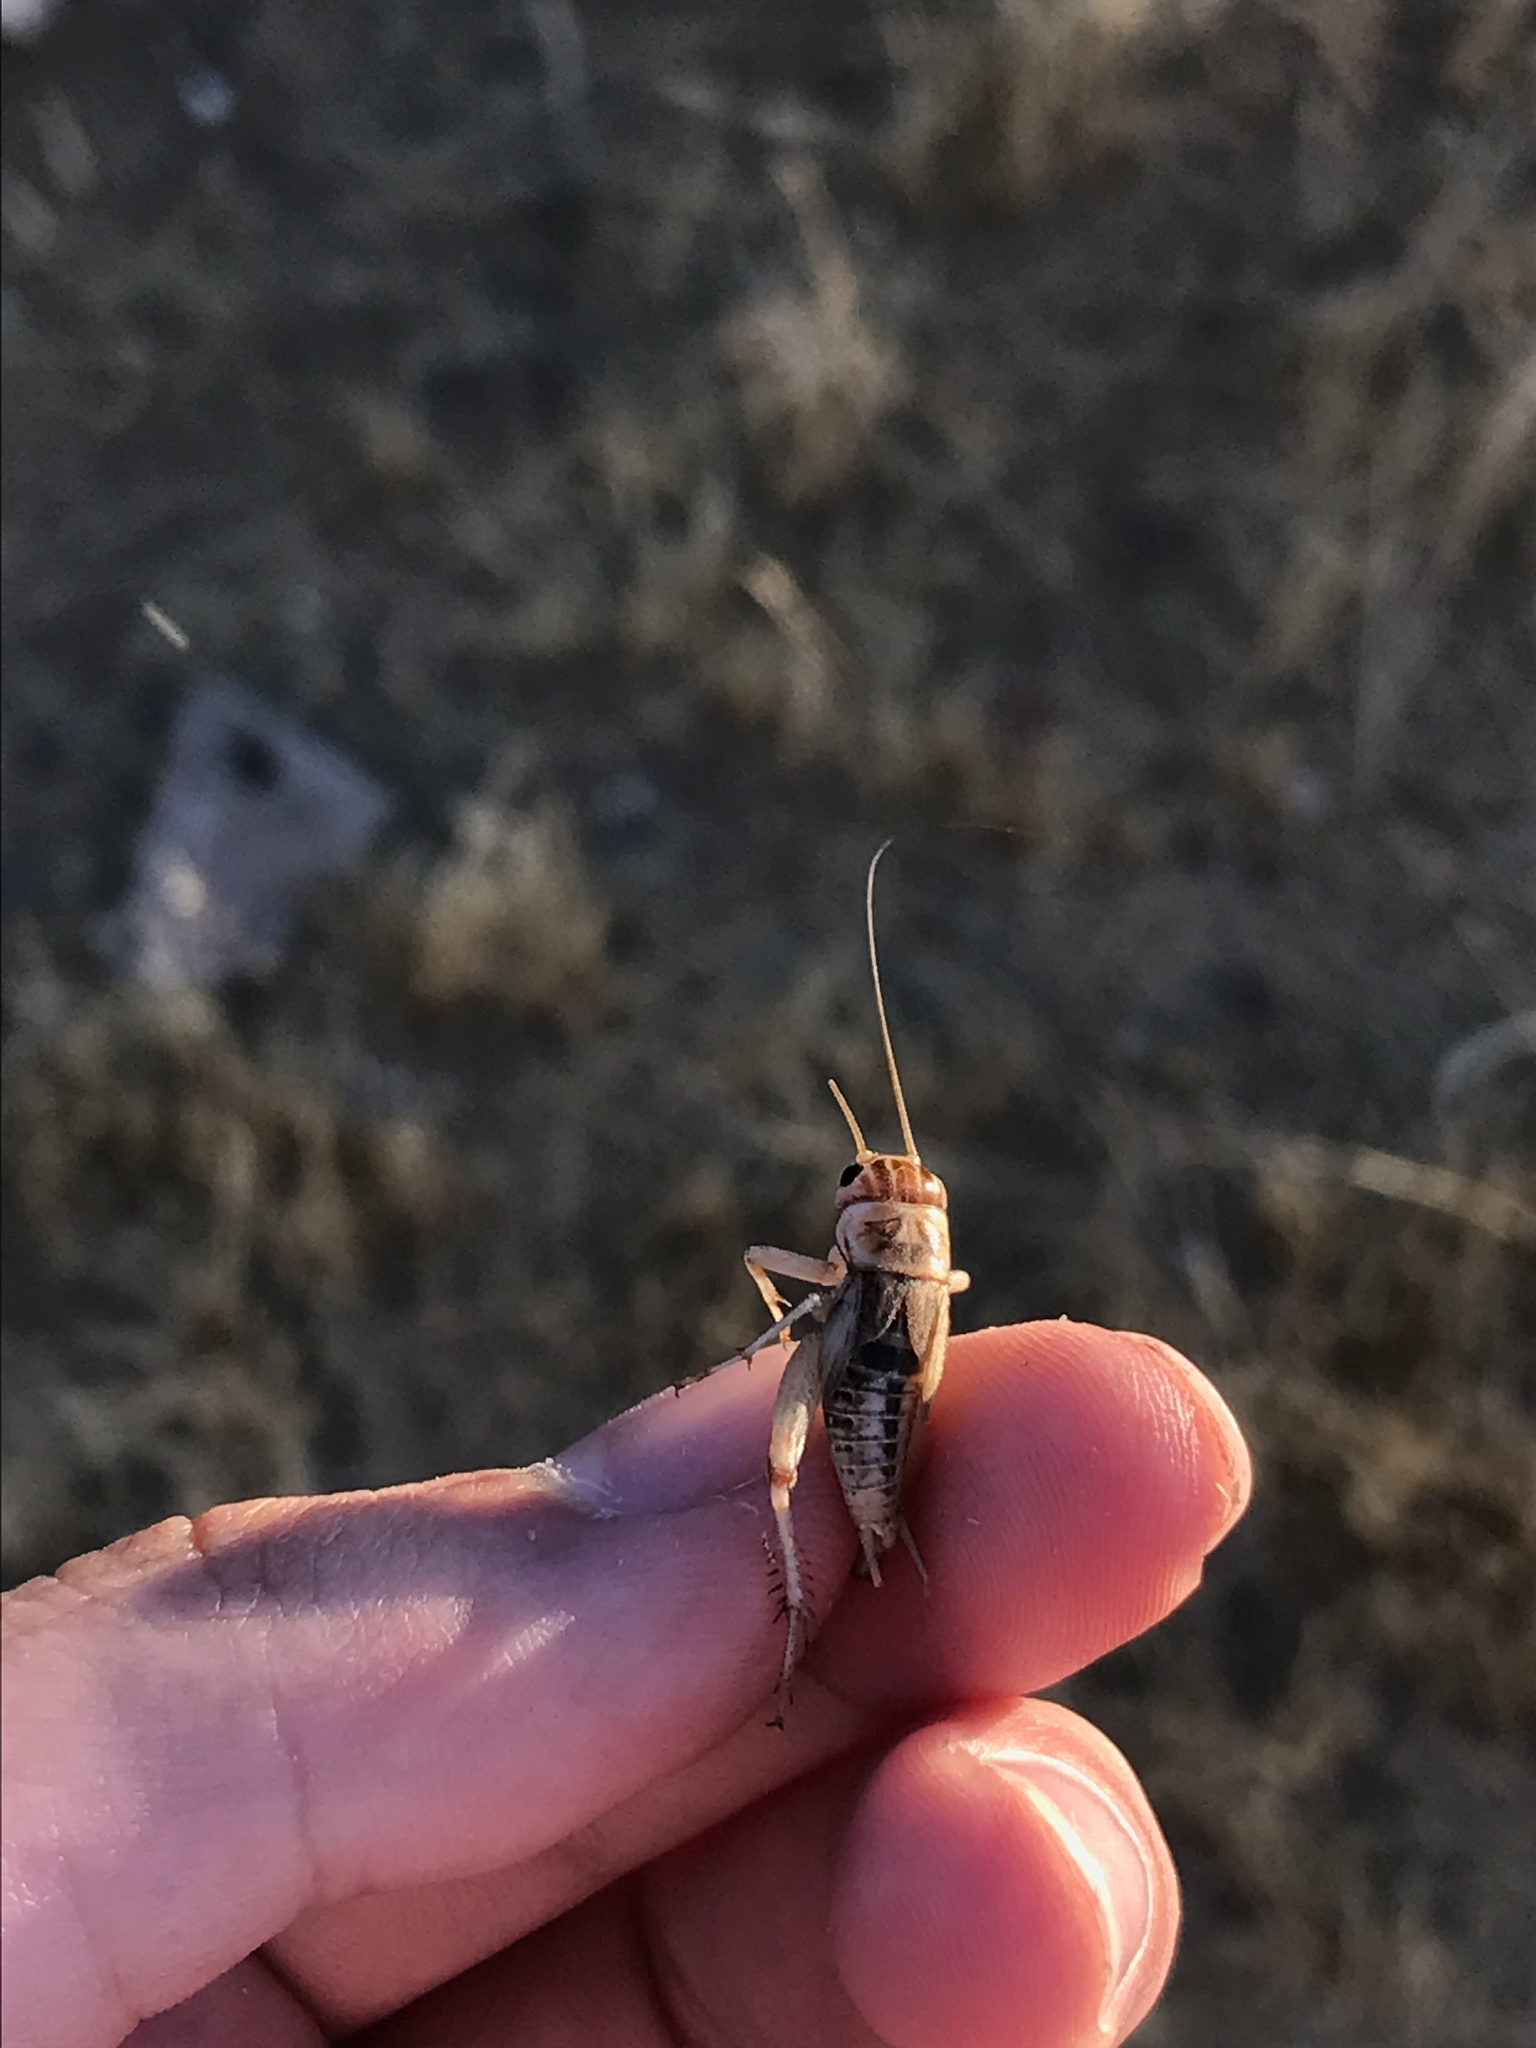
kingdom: Animalia
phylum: Arthropoda
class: Insecta
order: Orthoptera
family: Gryllidae
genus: Gryllodes
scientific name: Gryllodes sigillatus
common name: Tropical house cricket
